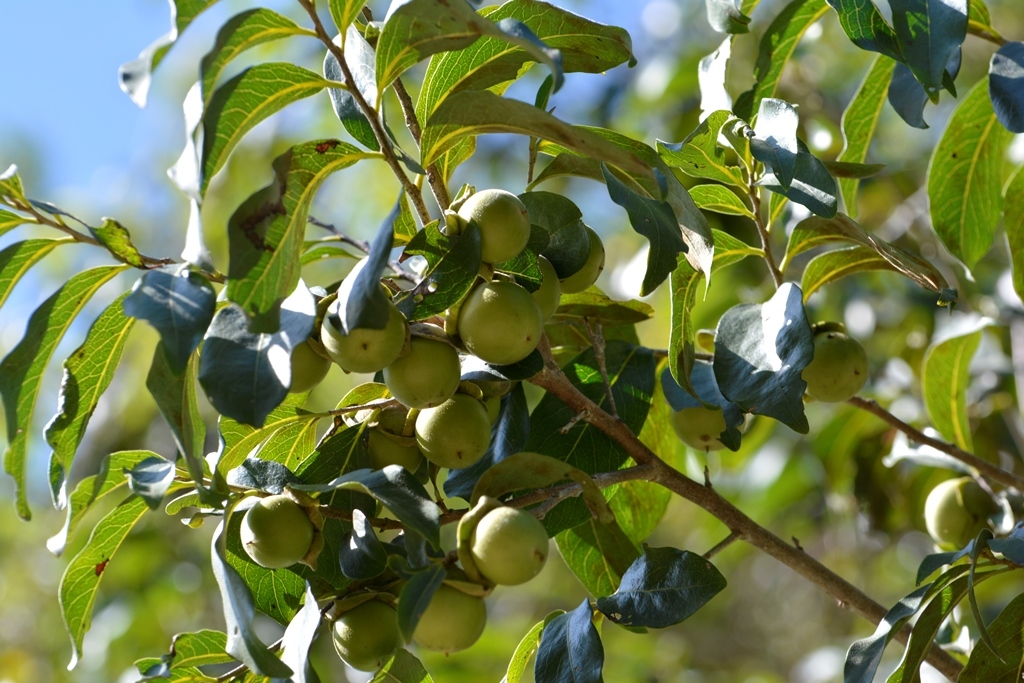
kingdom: Plantae
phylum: Tracheophyta
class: Magnoliopsida
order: Ericales
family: Ebenaceae
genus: Diospyros
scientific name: Diospyros salicifolia
